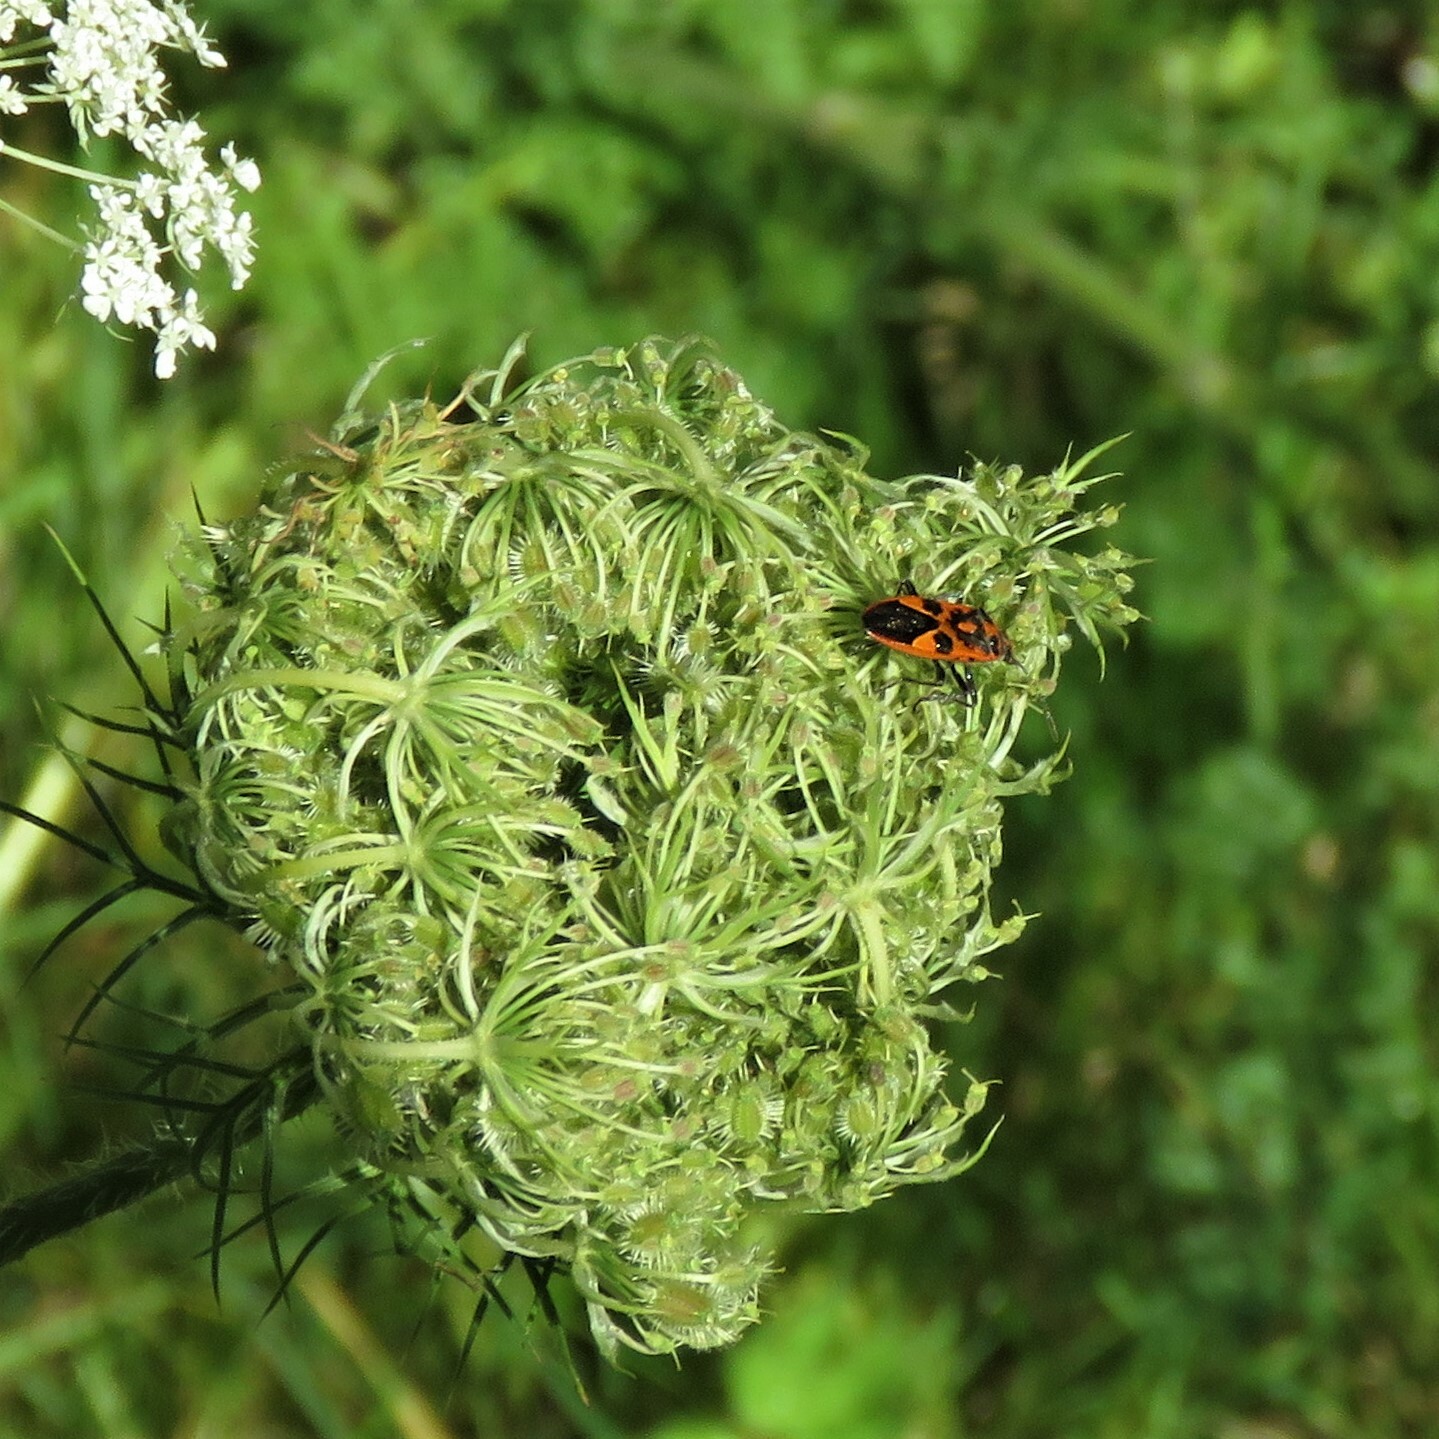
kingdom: Animalia
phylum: Arthropoda
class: Insecta
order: Hemiptera
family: Rhopalidae
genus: Corizus
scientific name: Corizus hyoscyami
